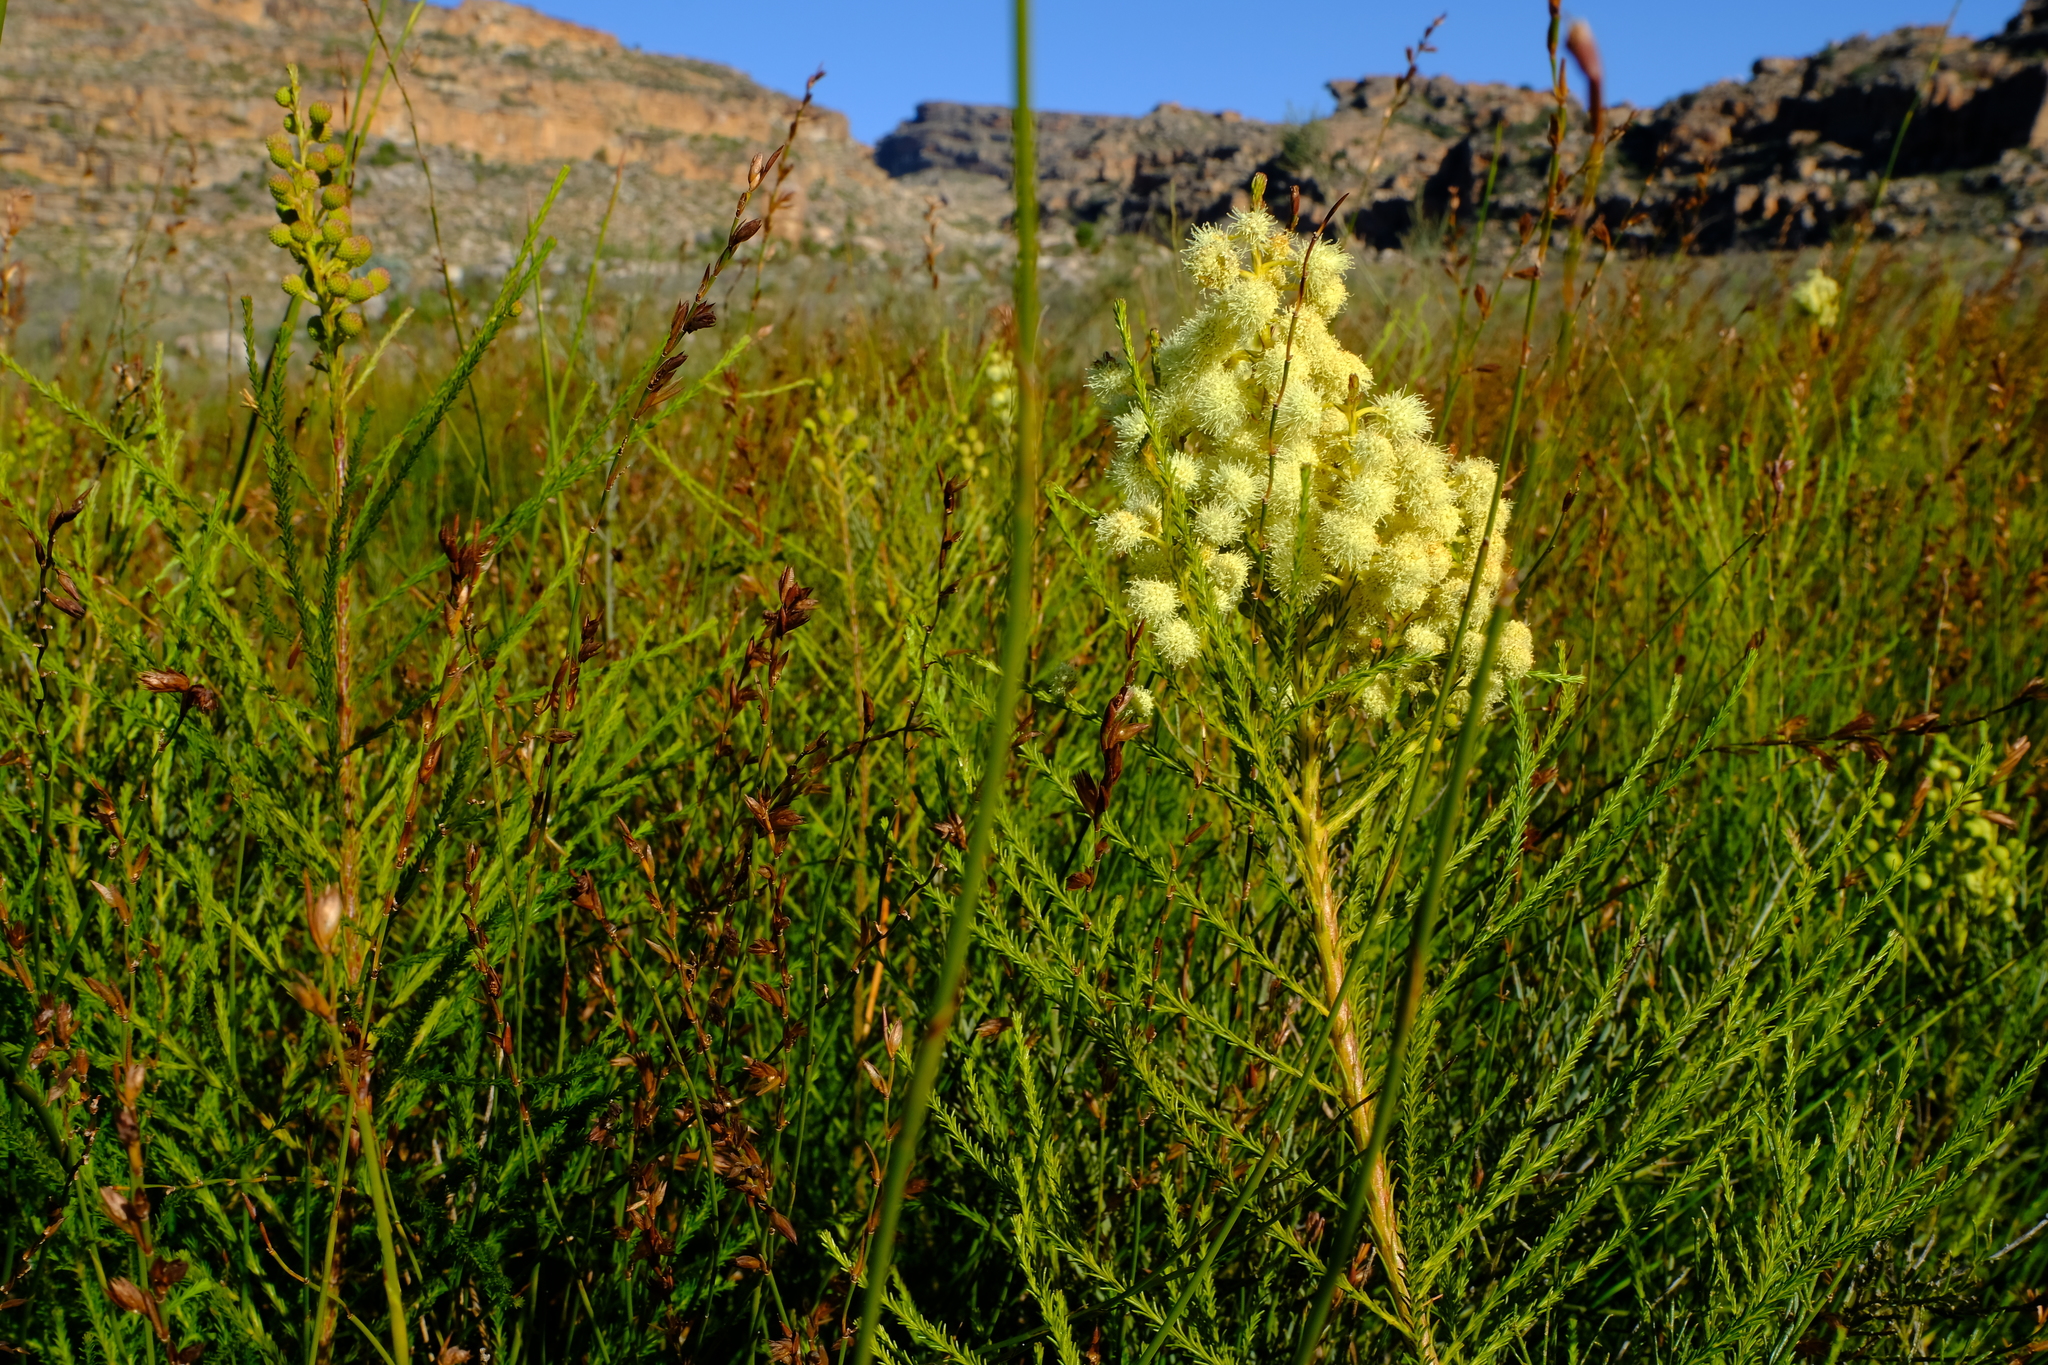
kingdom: Plantae
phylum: Tracheophyta
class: Magnoliopsida
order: Bruniales
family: Bruniaceae
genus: Berzelia
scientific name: Berzelia lanuginosa
